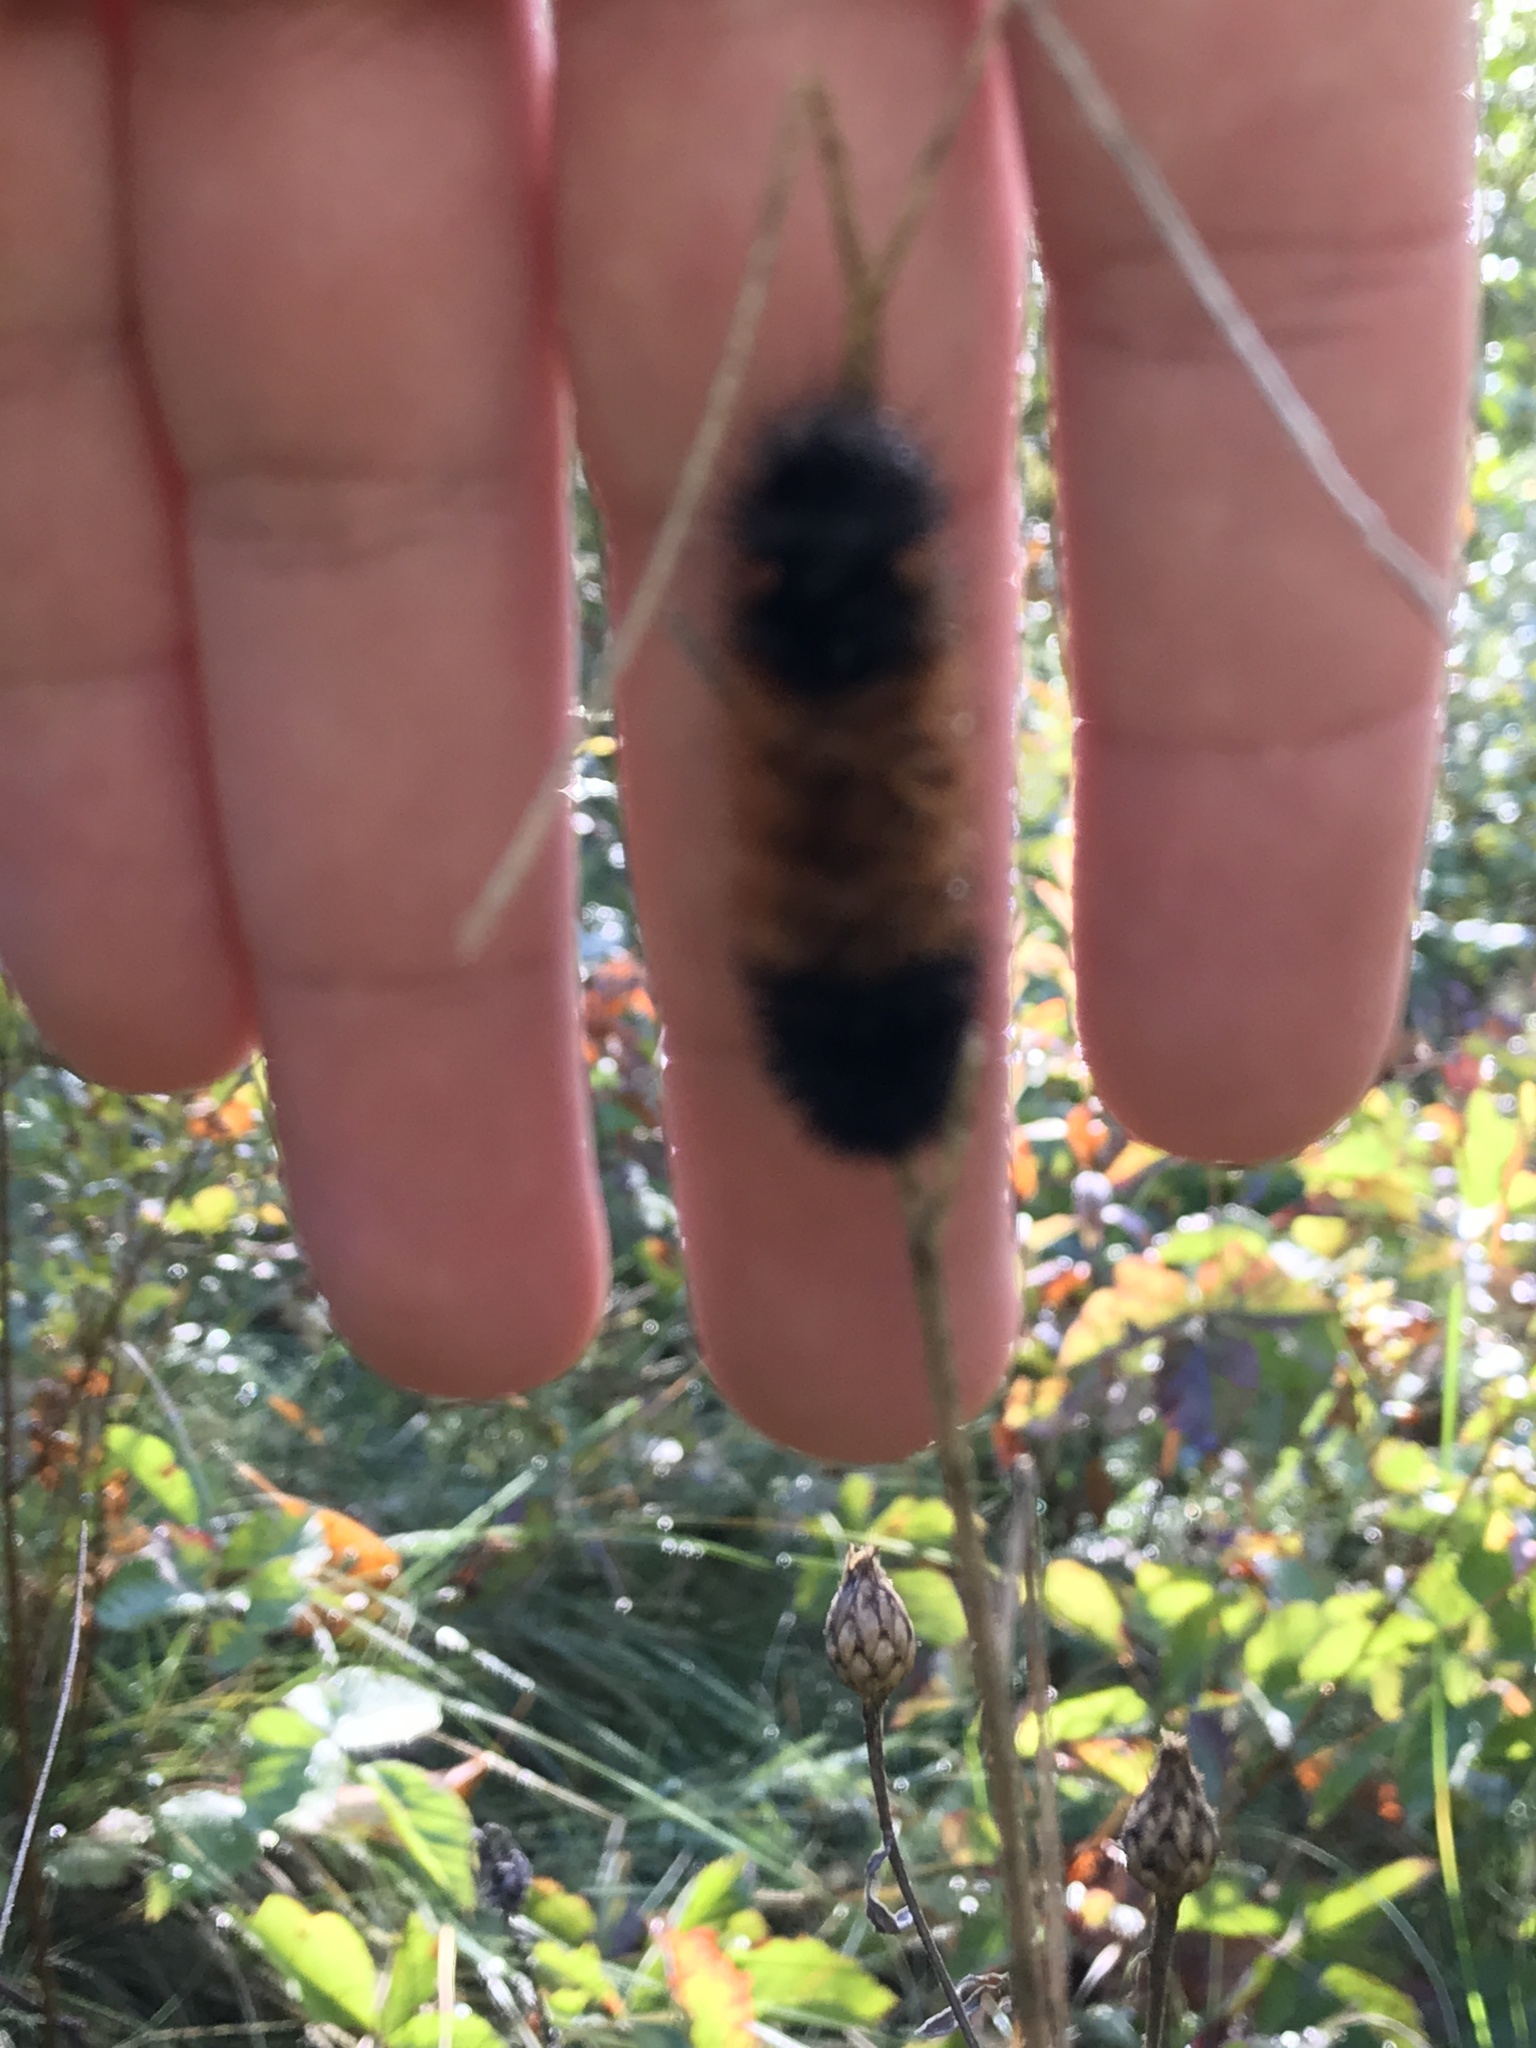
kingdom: Animalia
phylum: Arthropoda
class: Insecta
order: Lepidoptera
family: Erebidae
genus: Pyrrharctia
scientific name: Pyrrharctia isabella
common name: Isabella tiger moth
